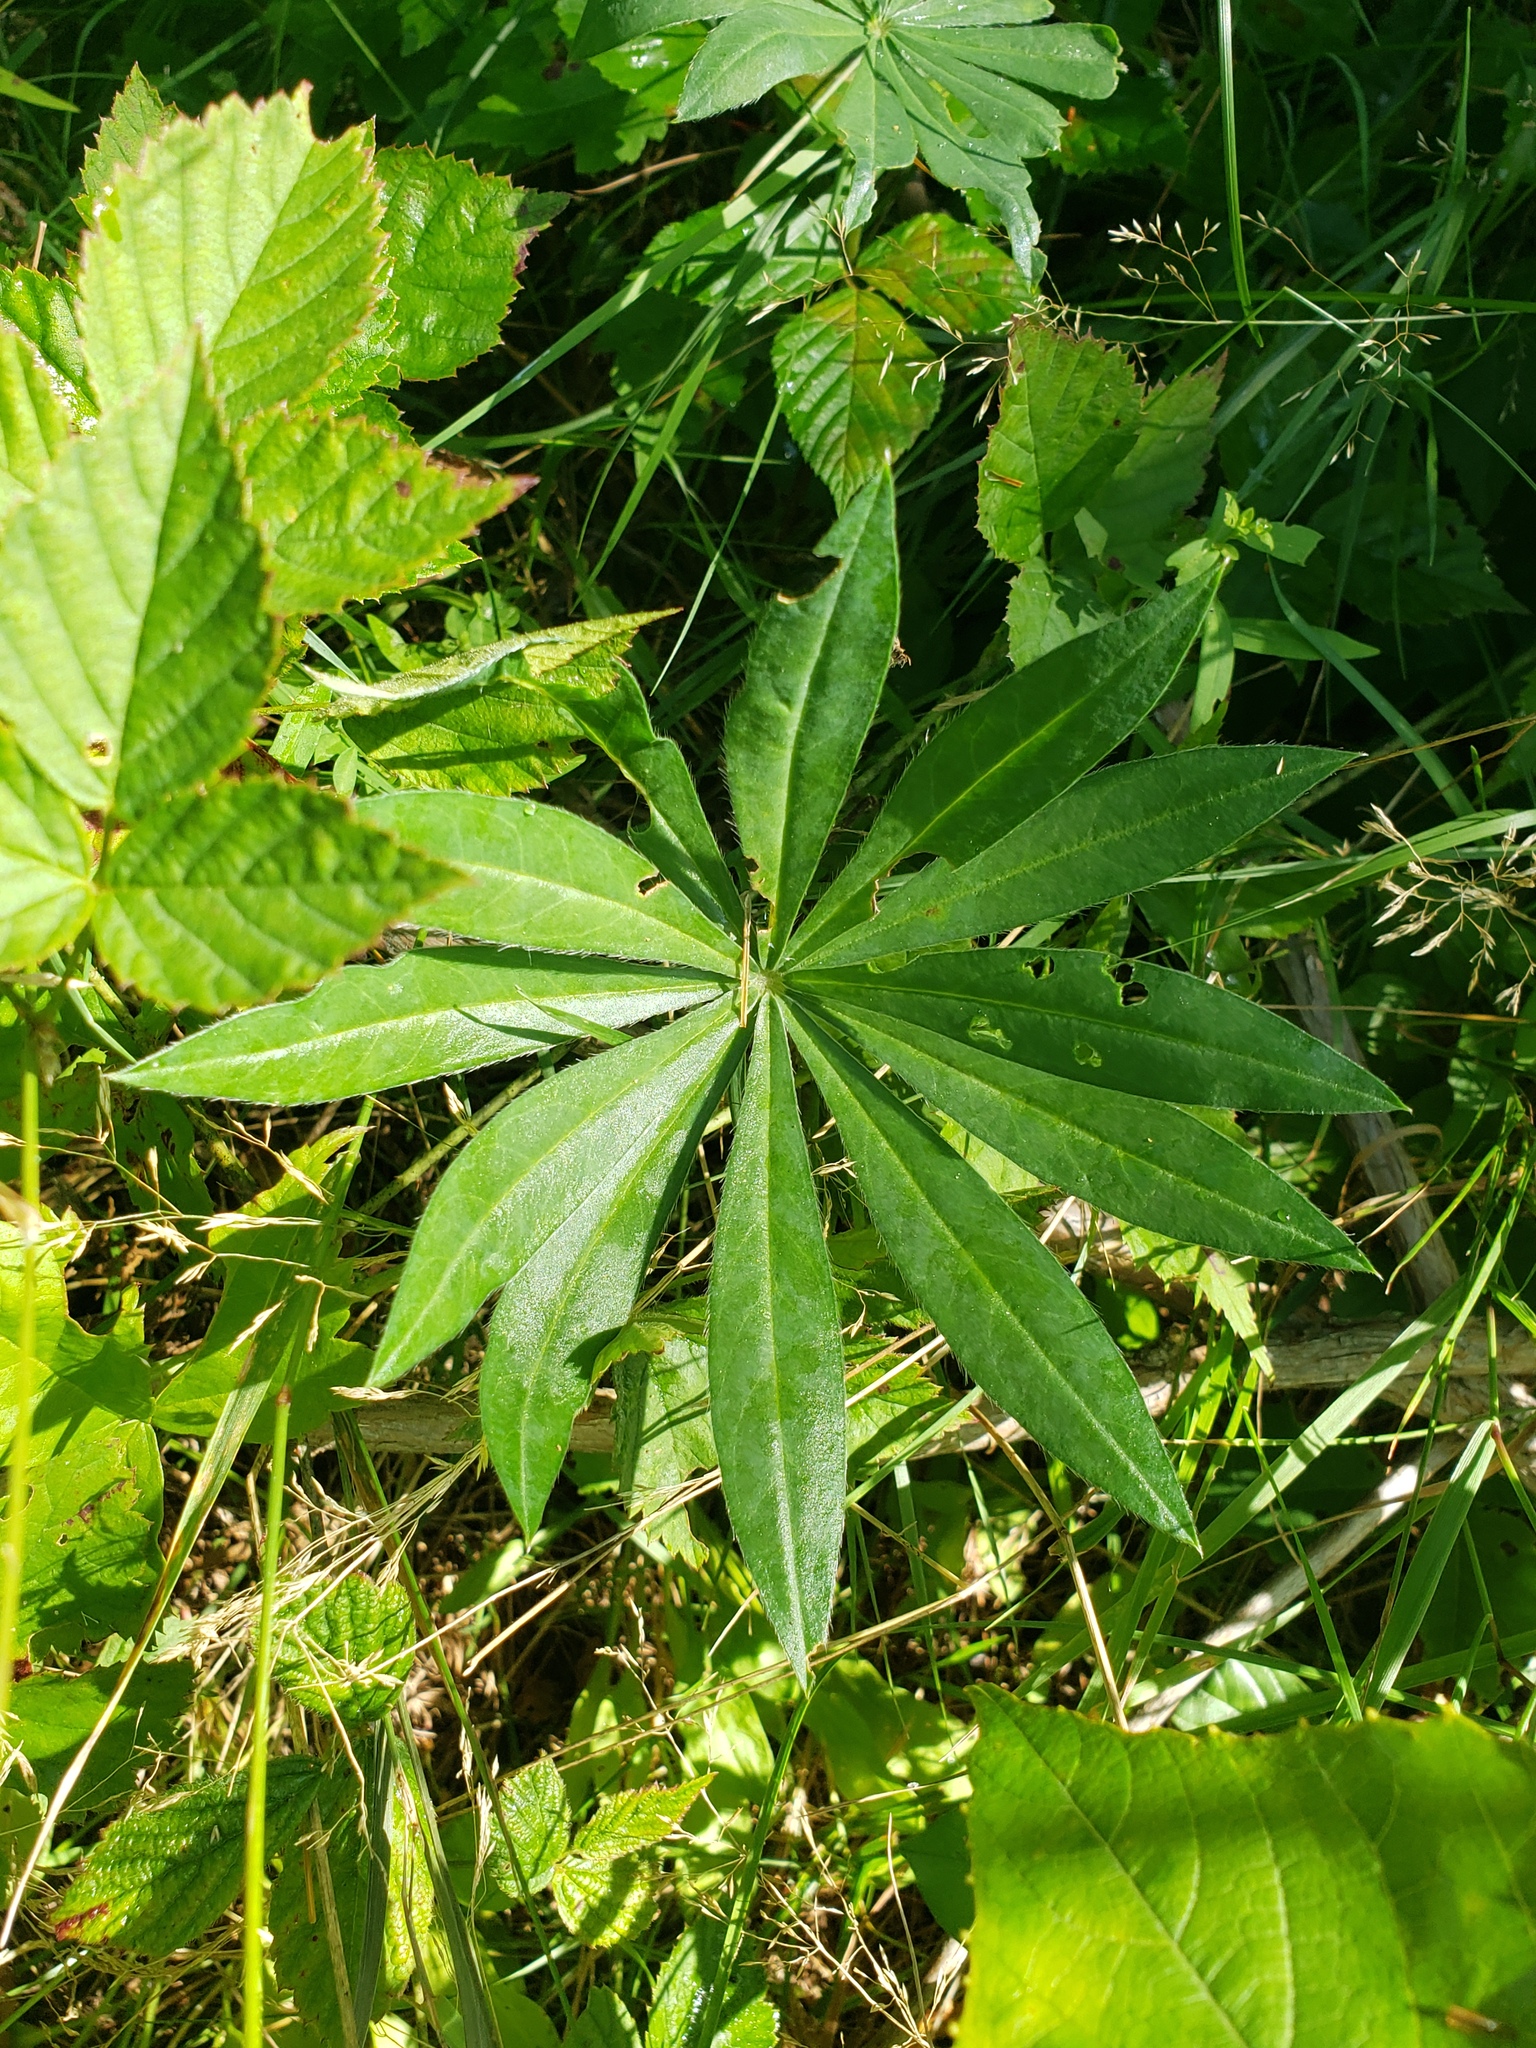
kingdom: Plantae
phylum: Tracheophyta
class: Magnoliopsida
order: Fabales
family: Fabaceae
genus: Lupinus
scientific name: Lupinus polyphyllus
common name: Garden lupin
